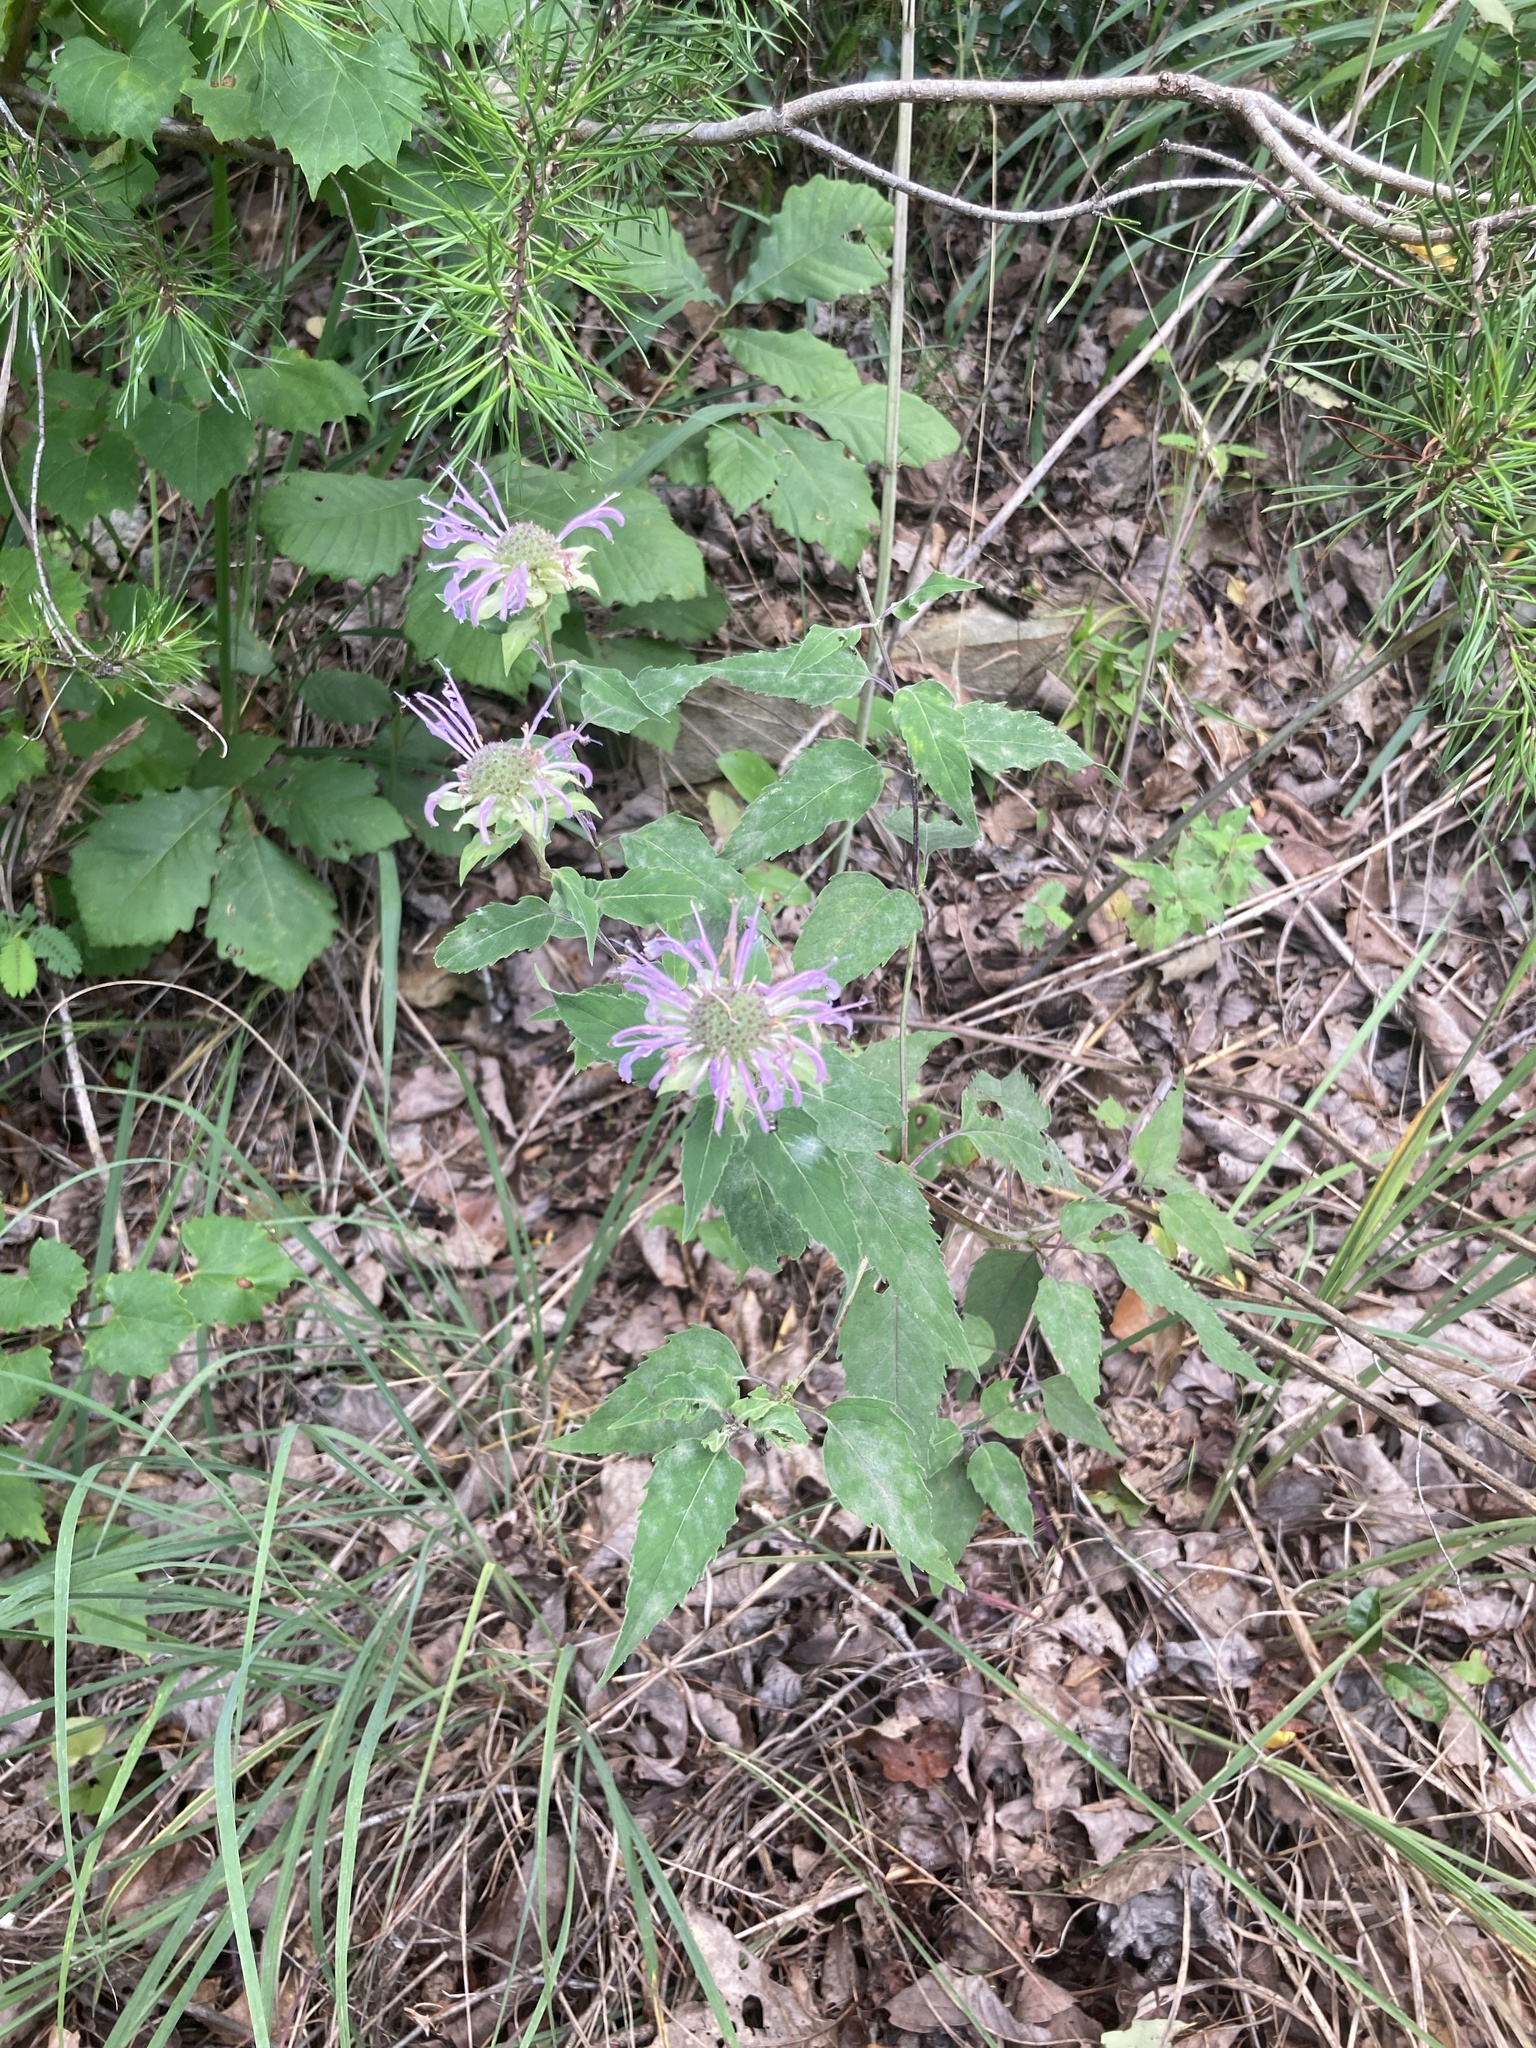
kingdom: Plantae
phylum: Tracheophyta
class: Magnoliopsida
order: Lamiales
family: Lamiaceae
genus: Monarda
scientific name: Monarda fistulosa
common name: Purple beebalm
